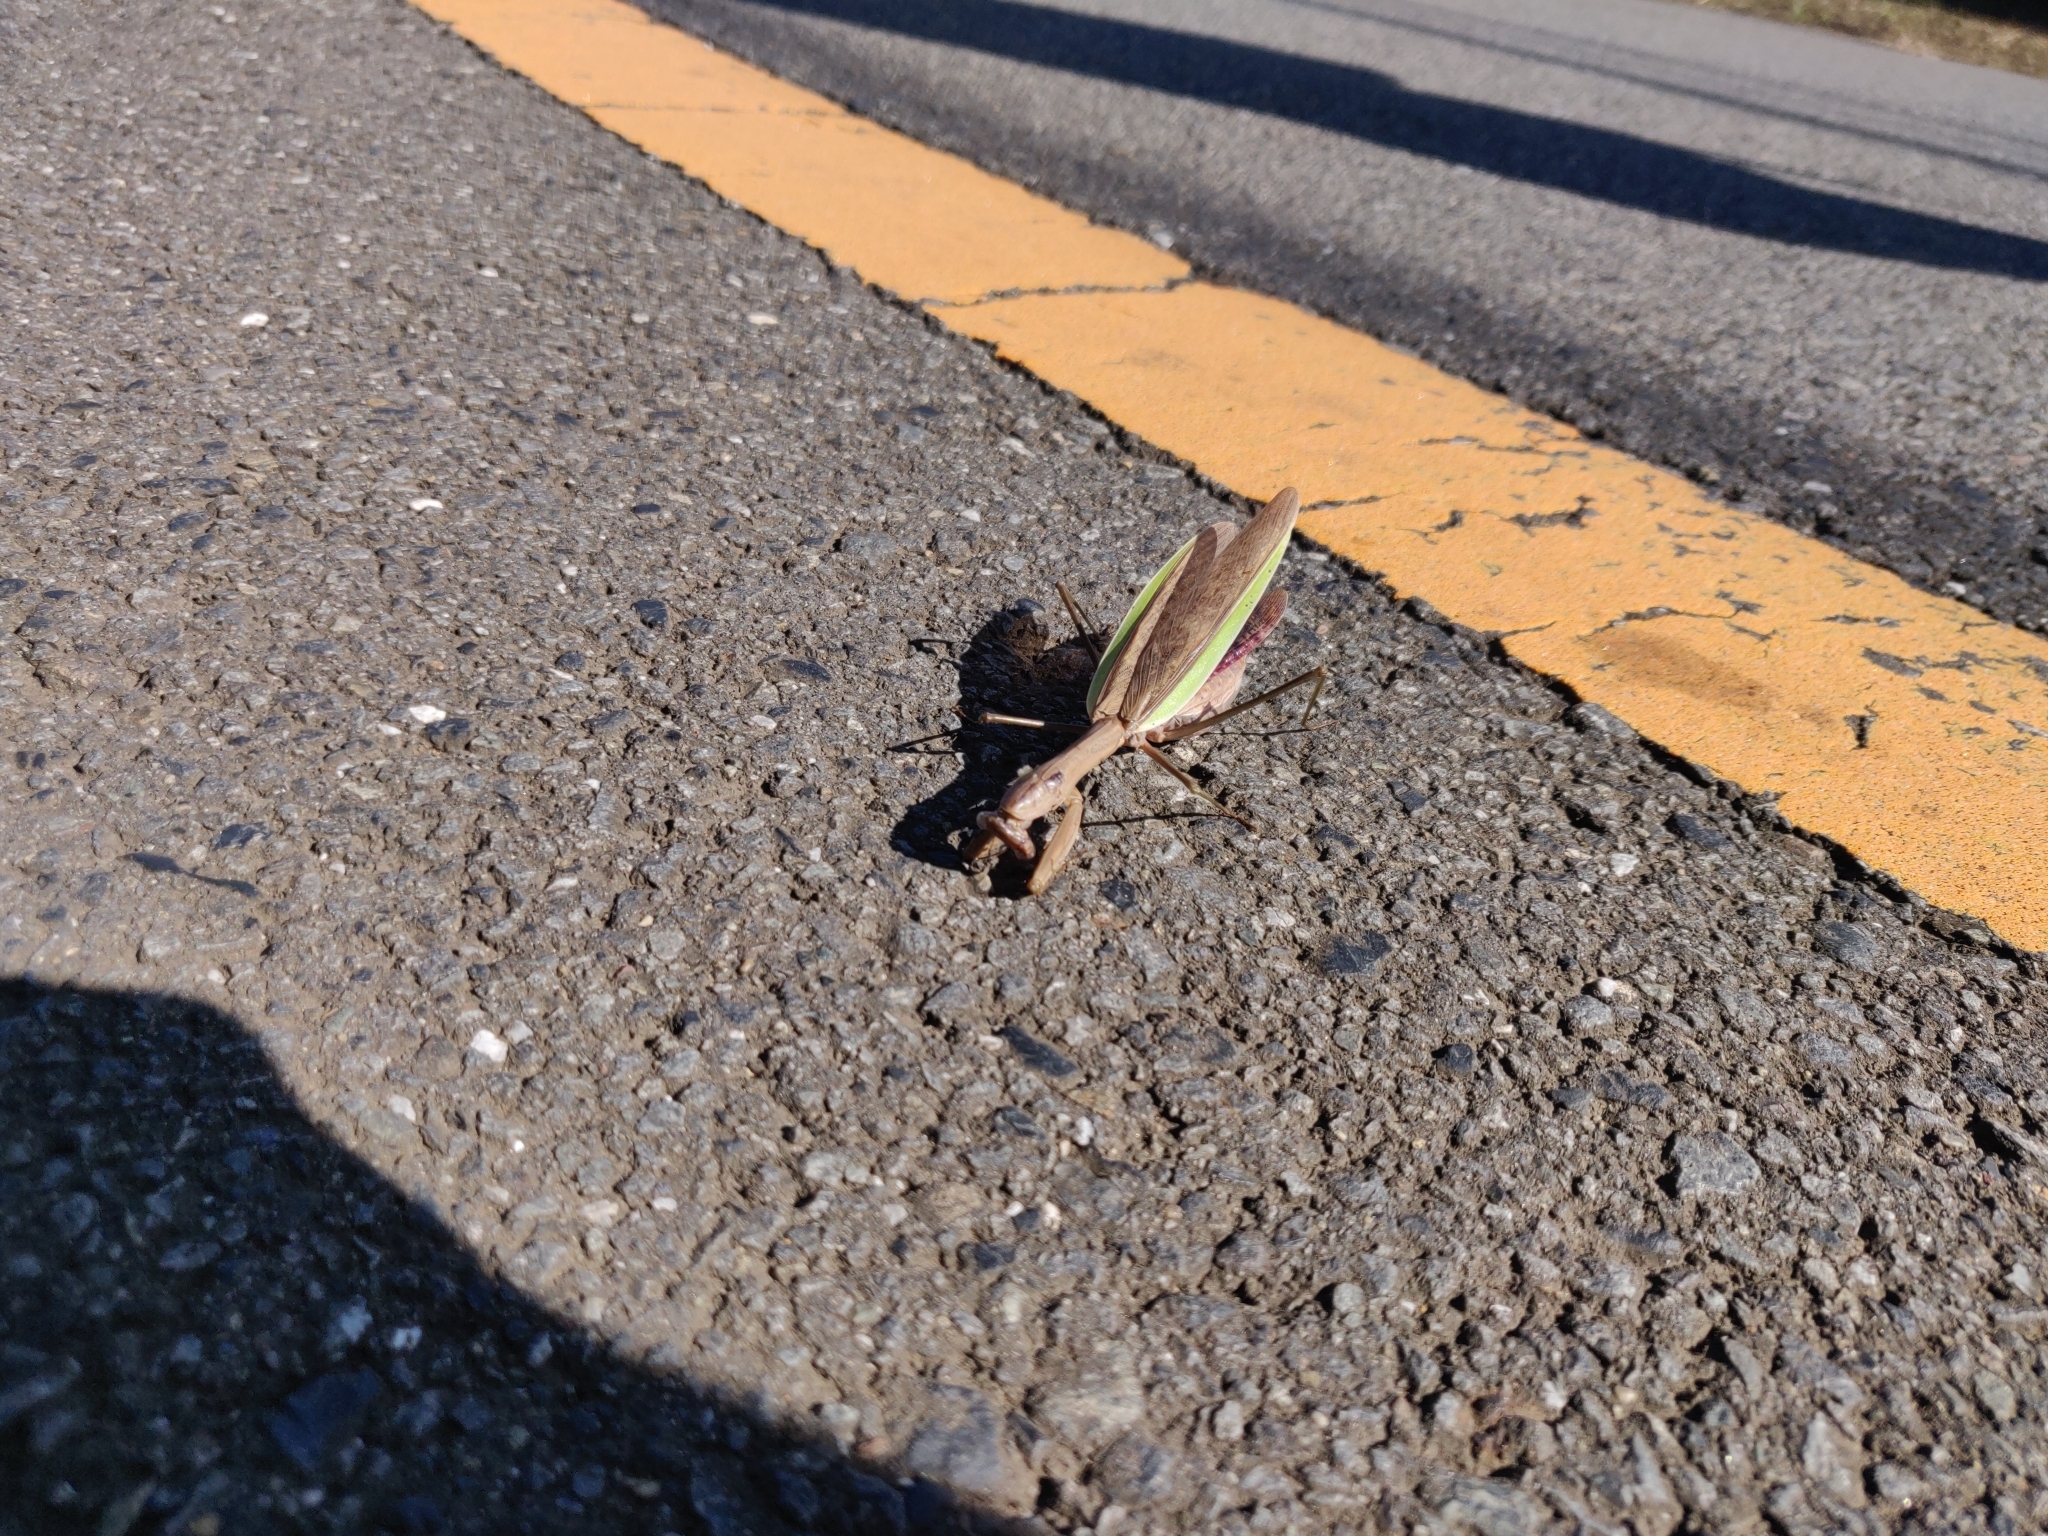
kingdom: Animalia
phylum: Arthropoda
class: Insecta
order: Mantodea
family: Mantidae
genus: Tenodera
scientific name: Tenodera sinensis
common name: Chinese mantis
